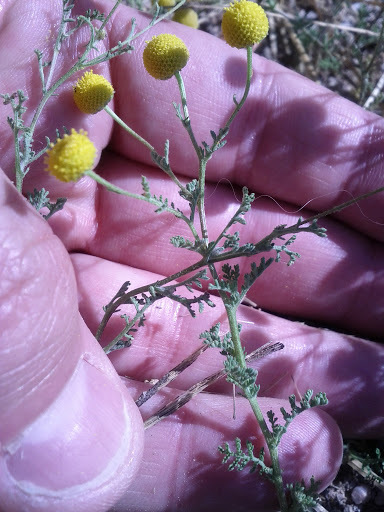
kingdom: Plantae
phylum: Tracheophyta
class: Magnoliopsida
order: Asterales
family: Asteraceae
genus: Oncosiphon
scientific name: Oncosiphon pilulifer
